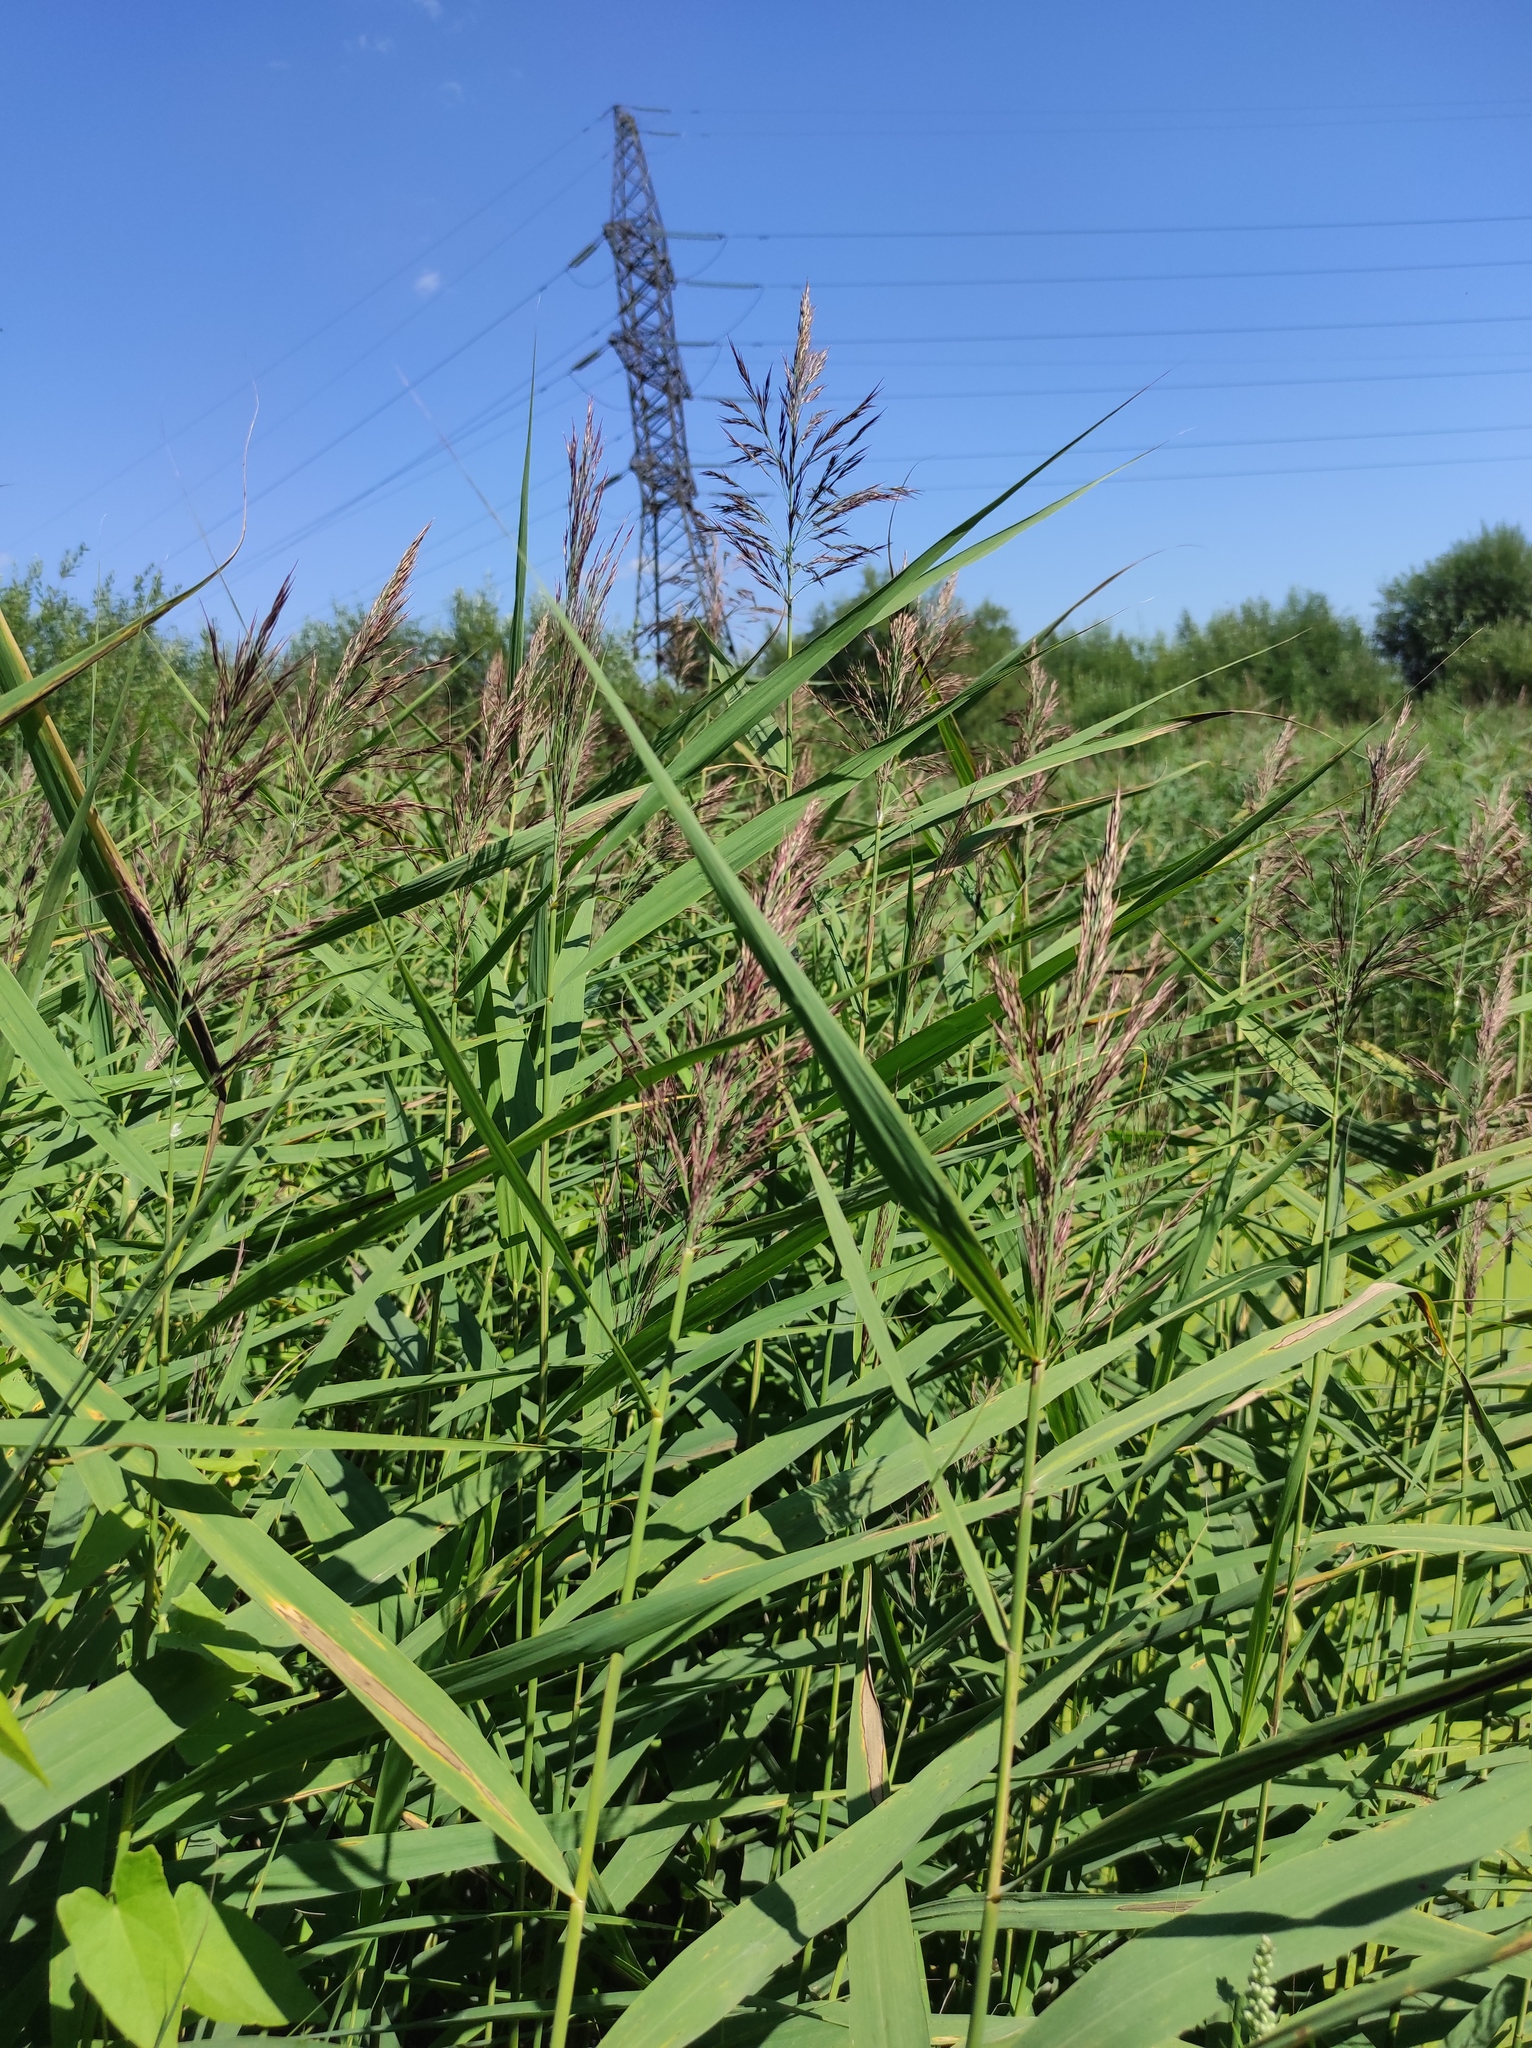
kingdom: Plantae
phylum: Tracheophyta
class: Liliopsida
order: Poales
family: Poaceae
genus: Phragmites
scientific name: Phragmites australis
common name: Common reed
